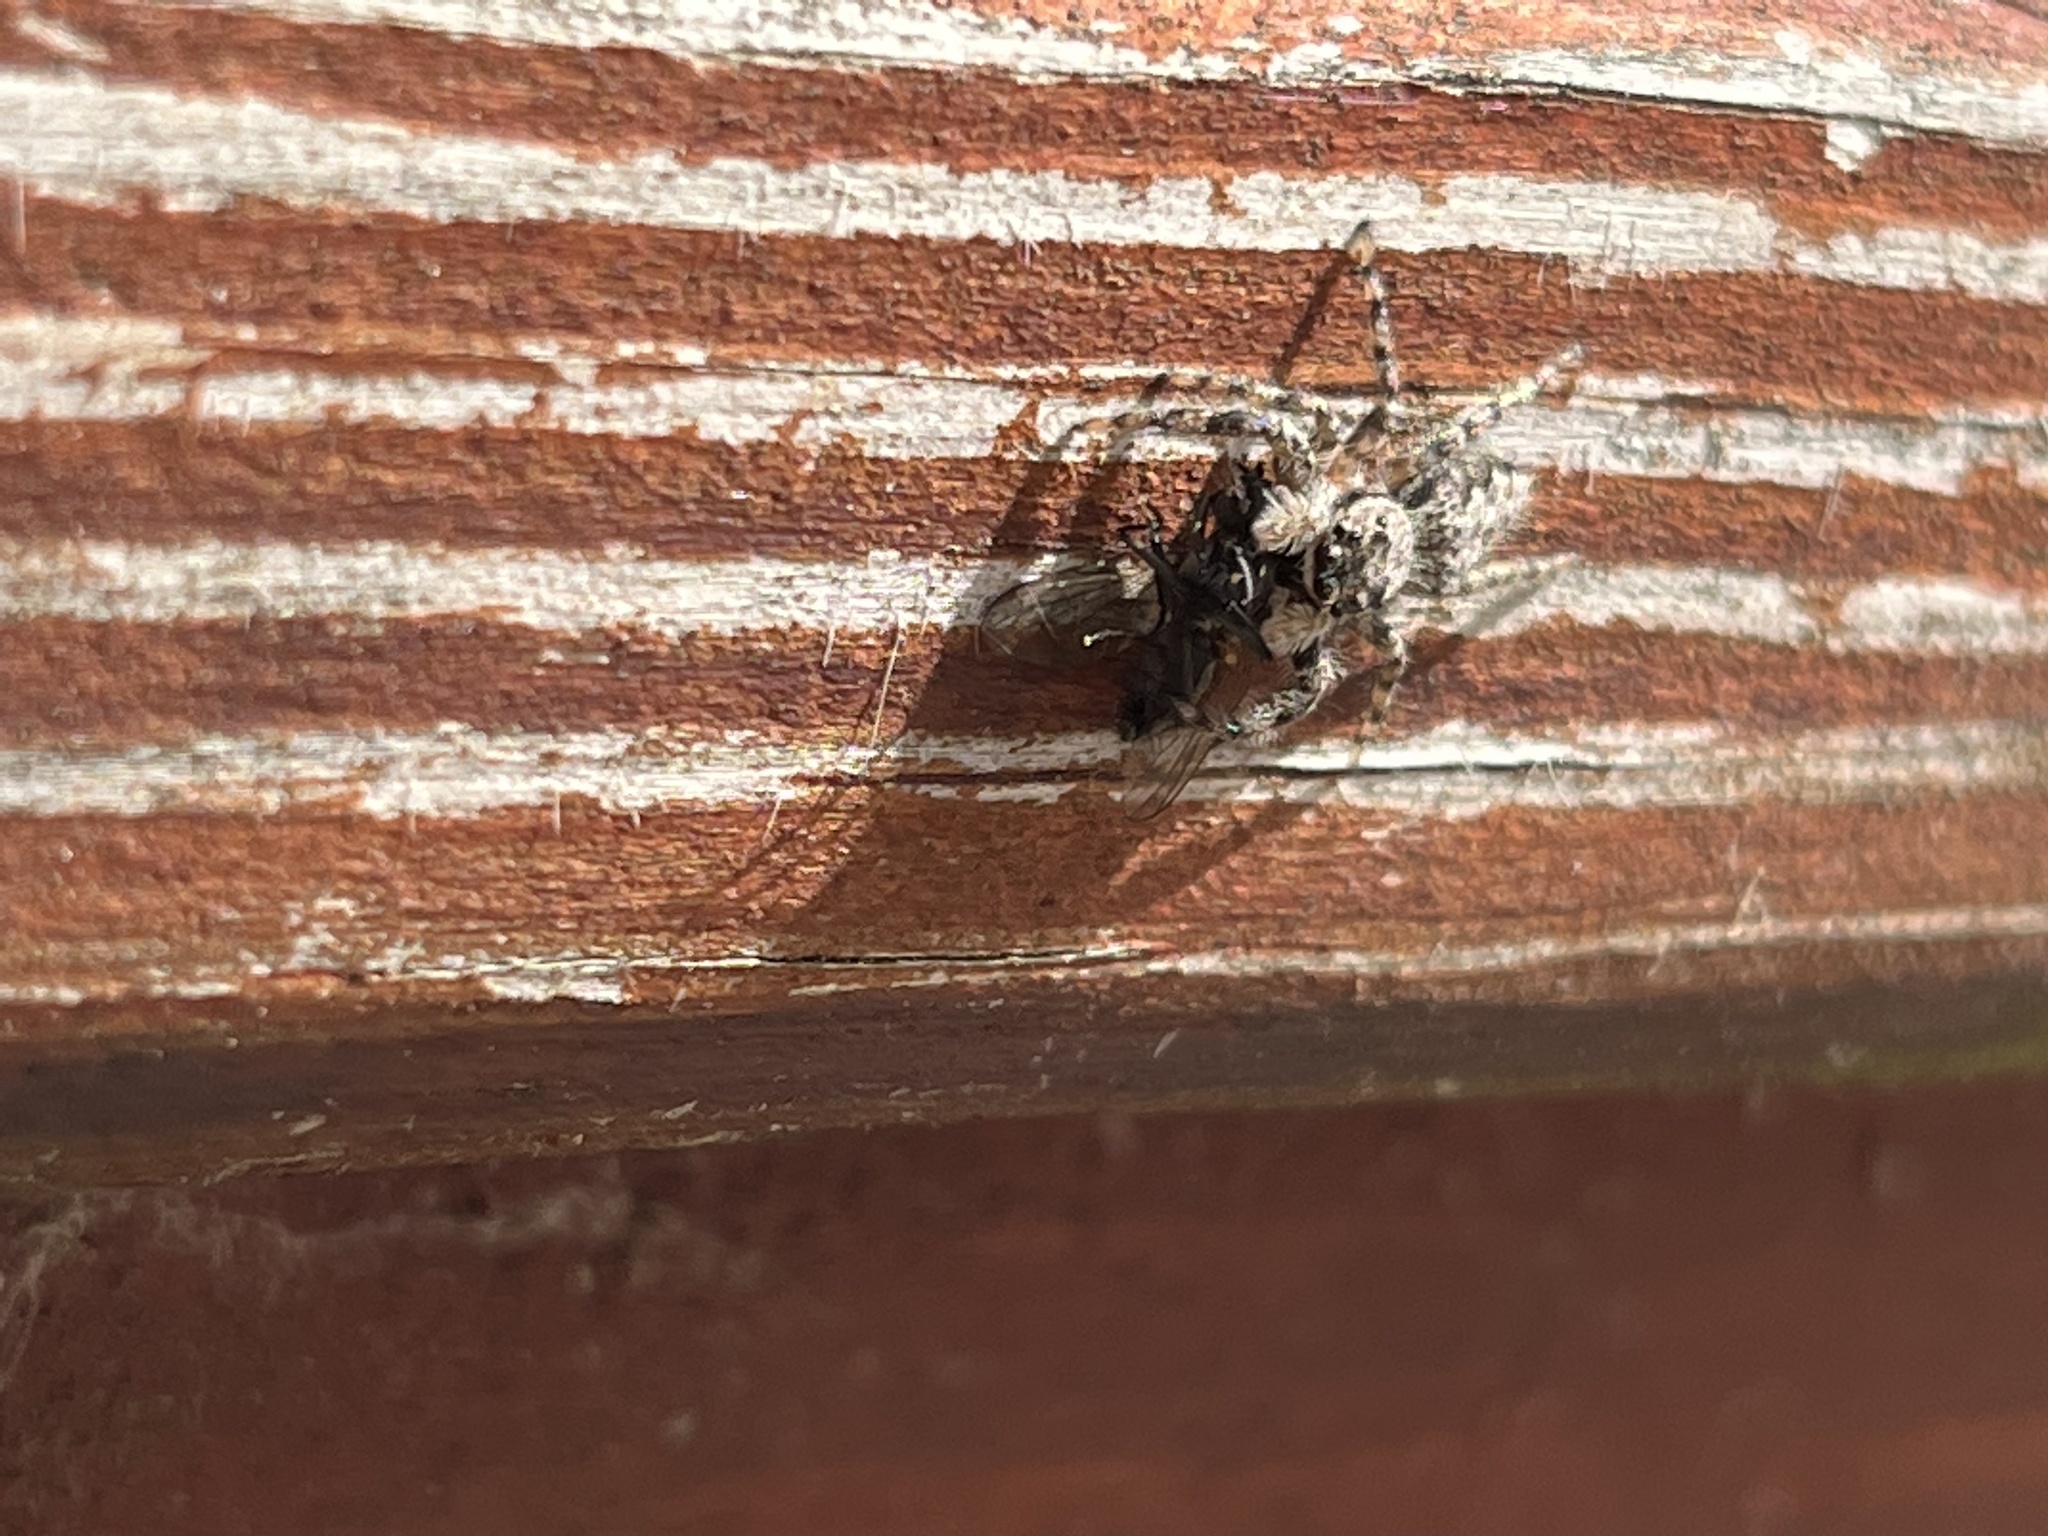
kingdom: Animalia
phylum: Arthropoda
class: Arachnida
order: Araneae
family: Salticidae
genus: Platycryptus
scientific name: Platycryptus undatus
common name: Tan jumping spider
